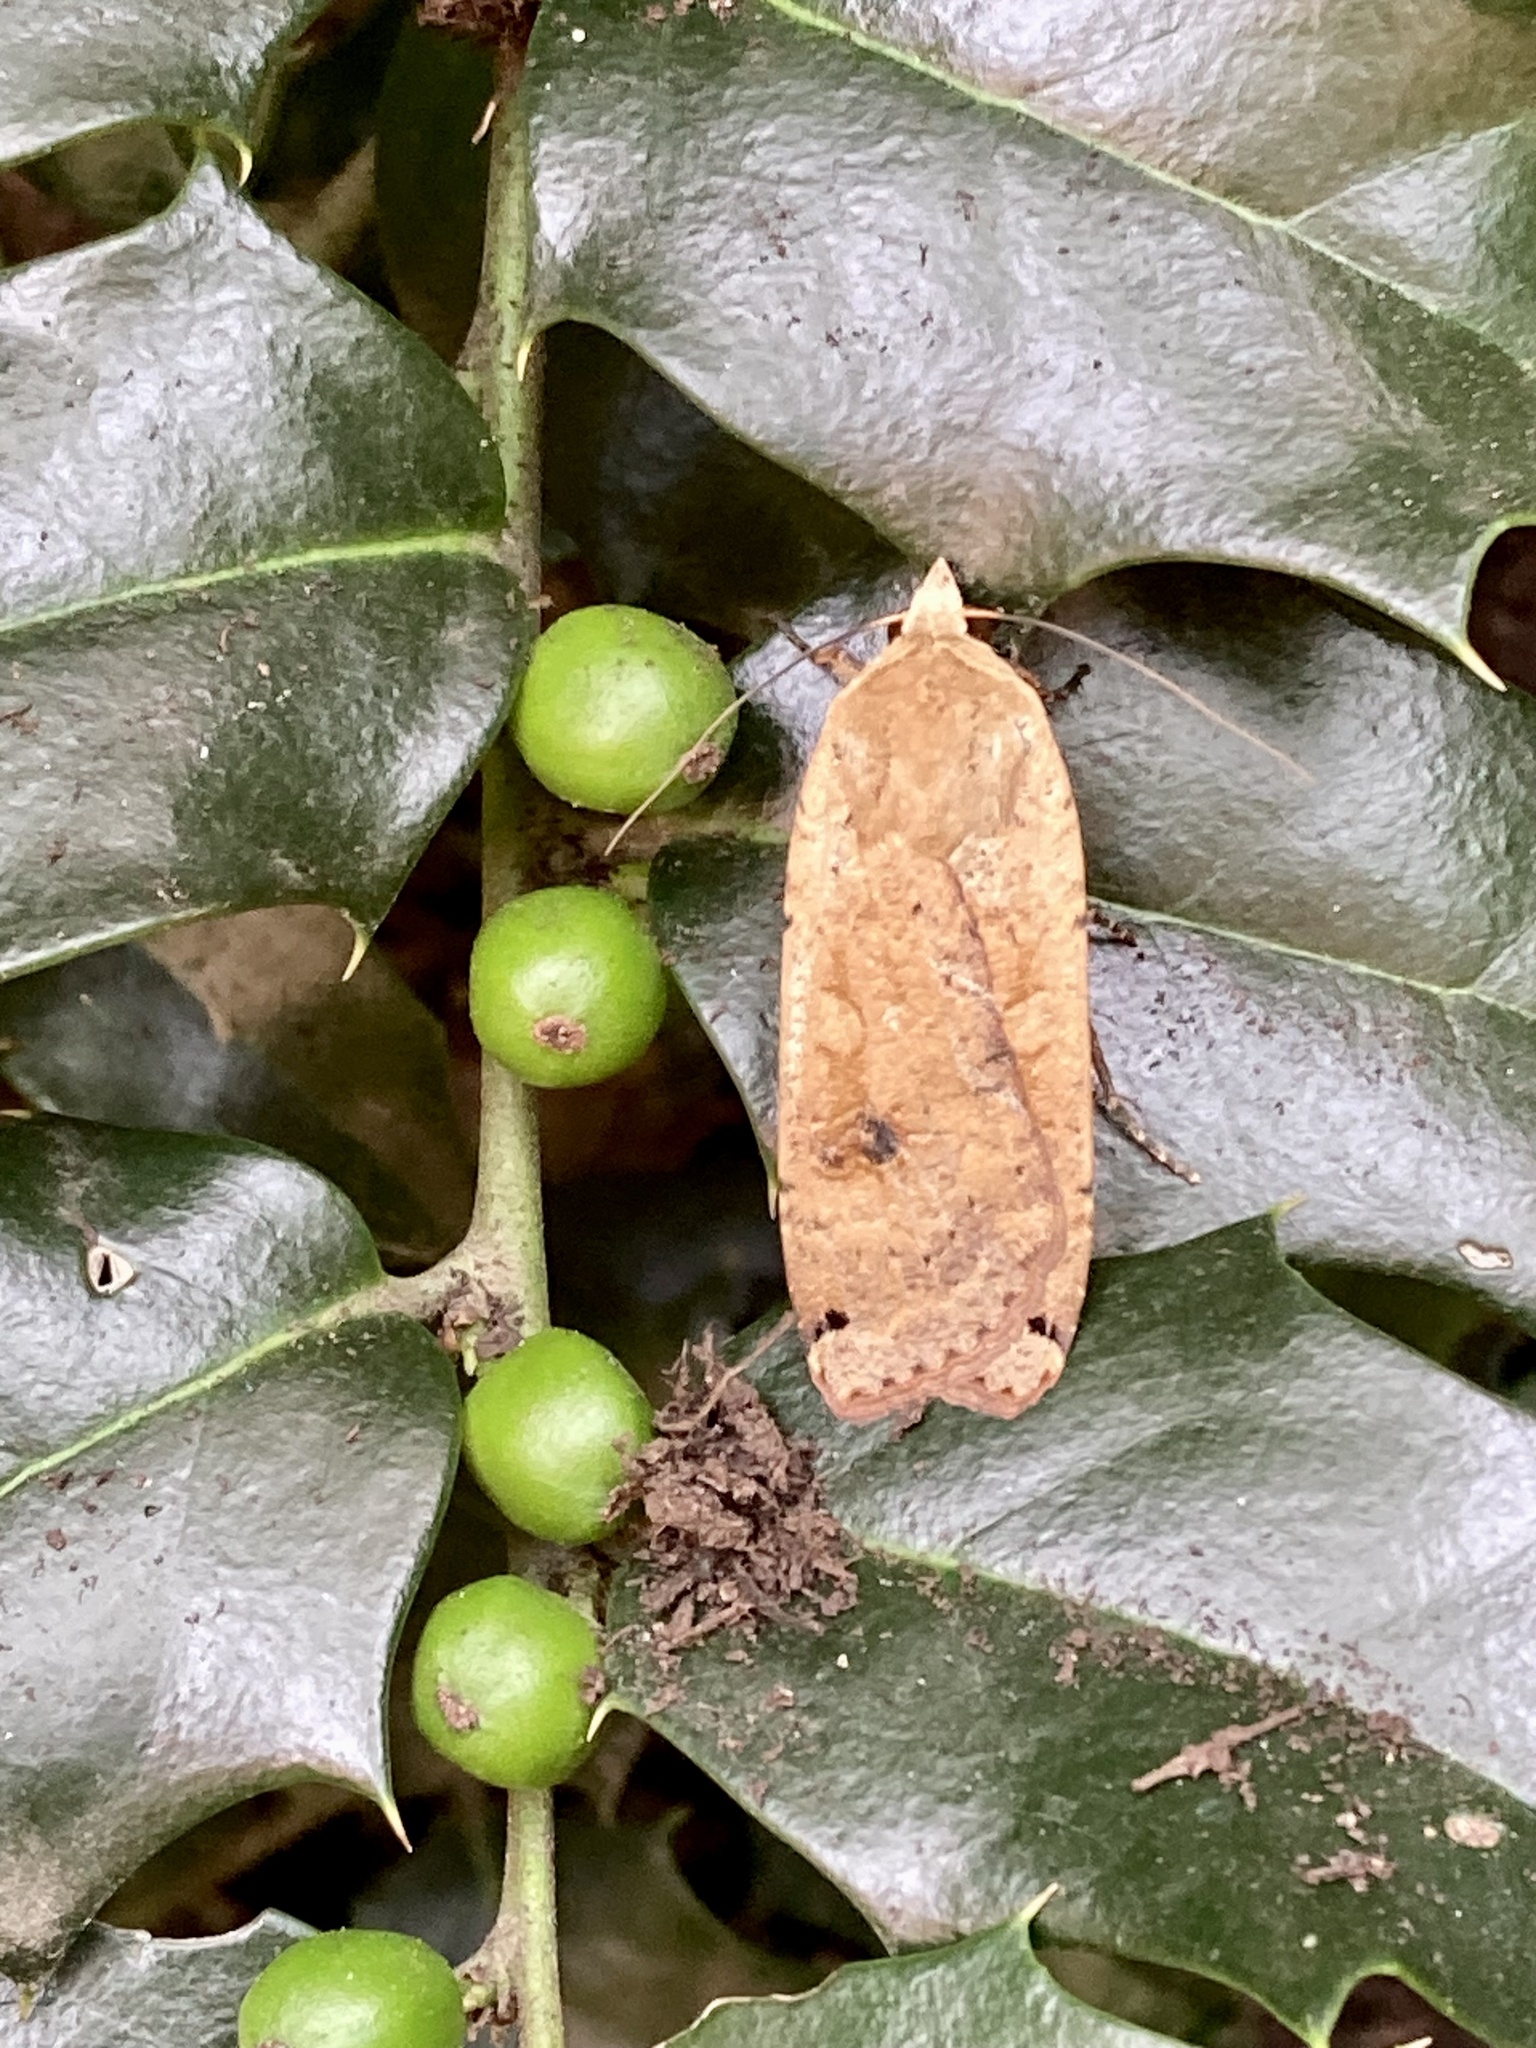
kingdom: Animalia
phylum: Arthropoda
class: Insecta
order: Lepidoptera
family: Noctuidae
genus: Noctua
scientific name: Noctua pronuba
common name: Large yellow underwing
